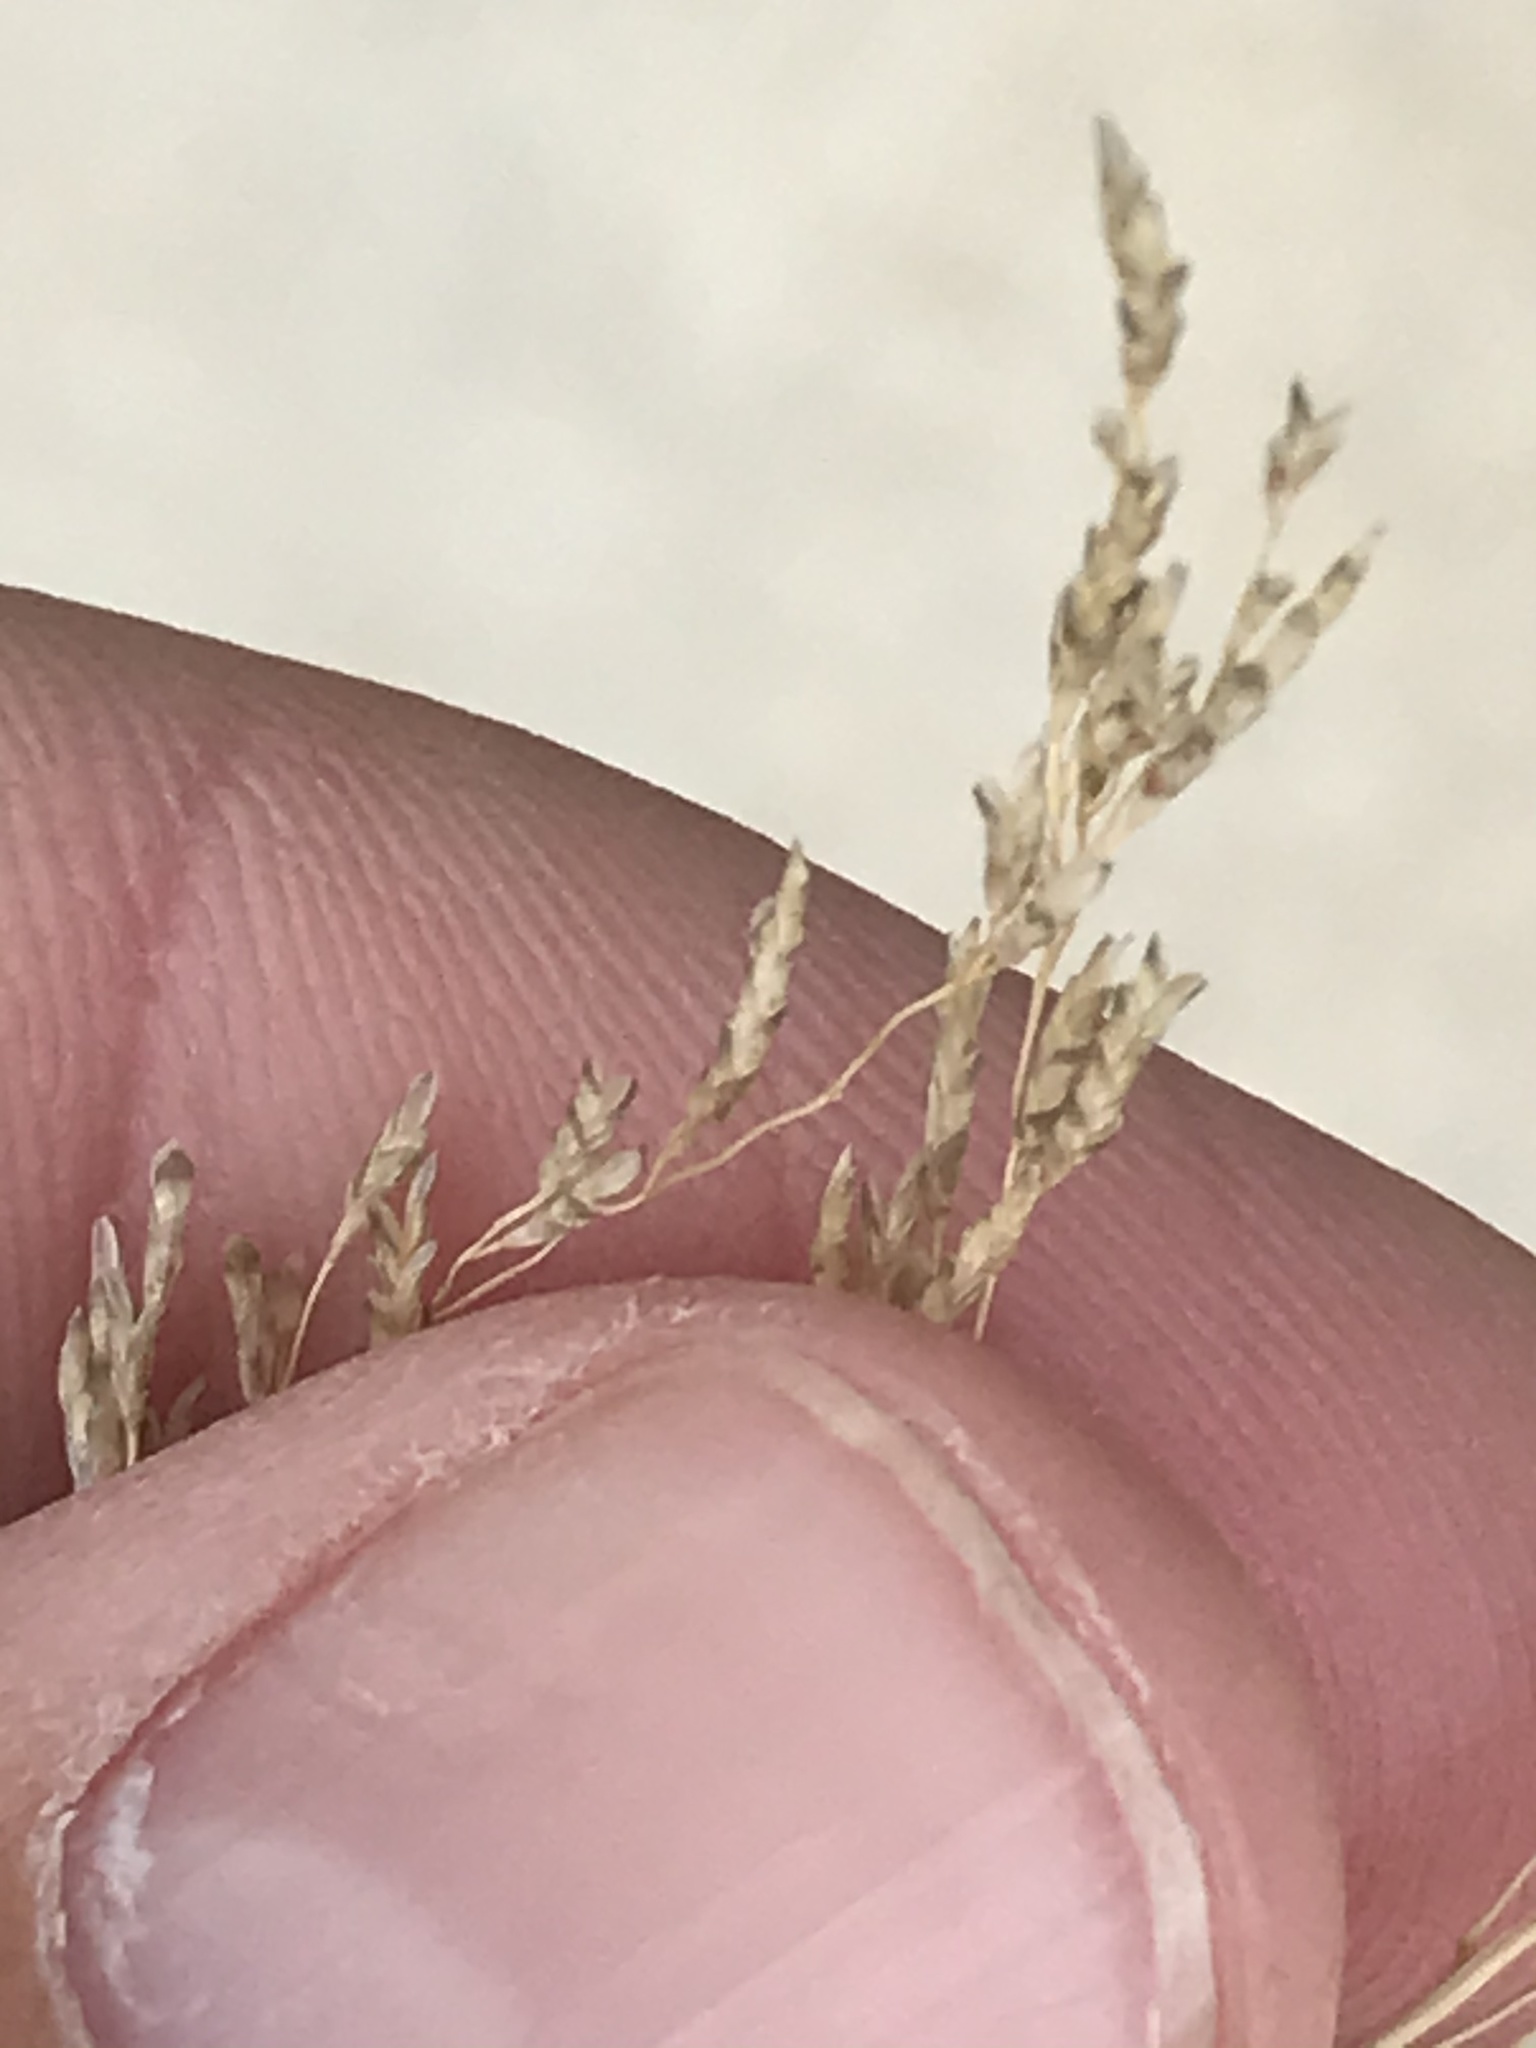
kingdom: Plantae
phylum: Tracheophyta
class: Liliopsida
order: Poales
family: Poaceae
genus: Eragrostis
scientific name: Eragrostis lehmanniana
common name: Lehmann lovegrass
